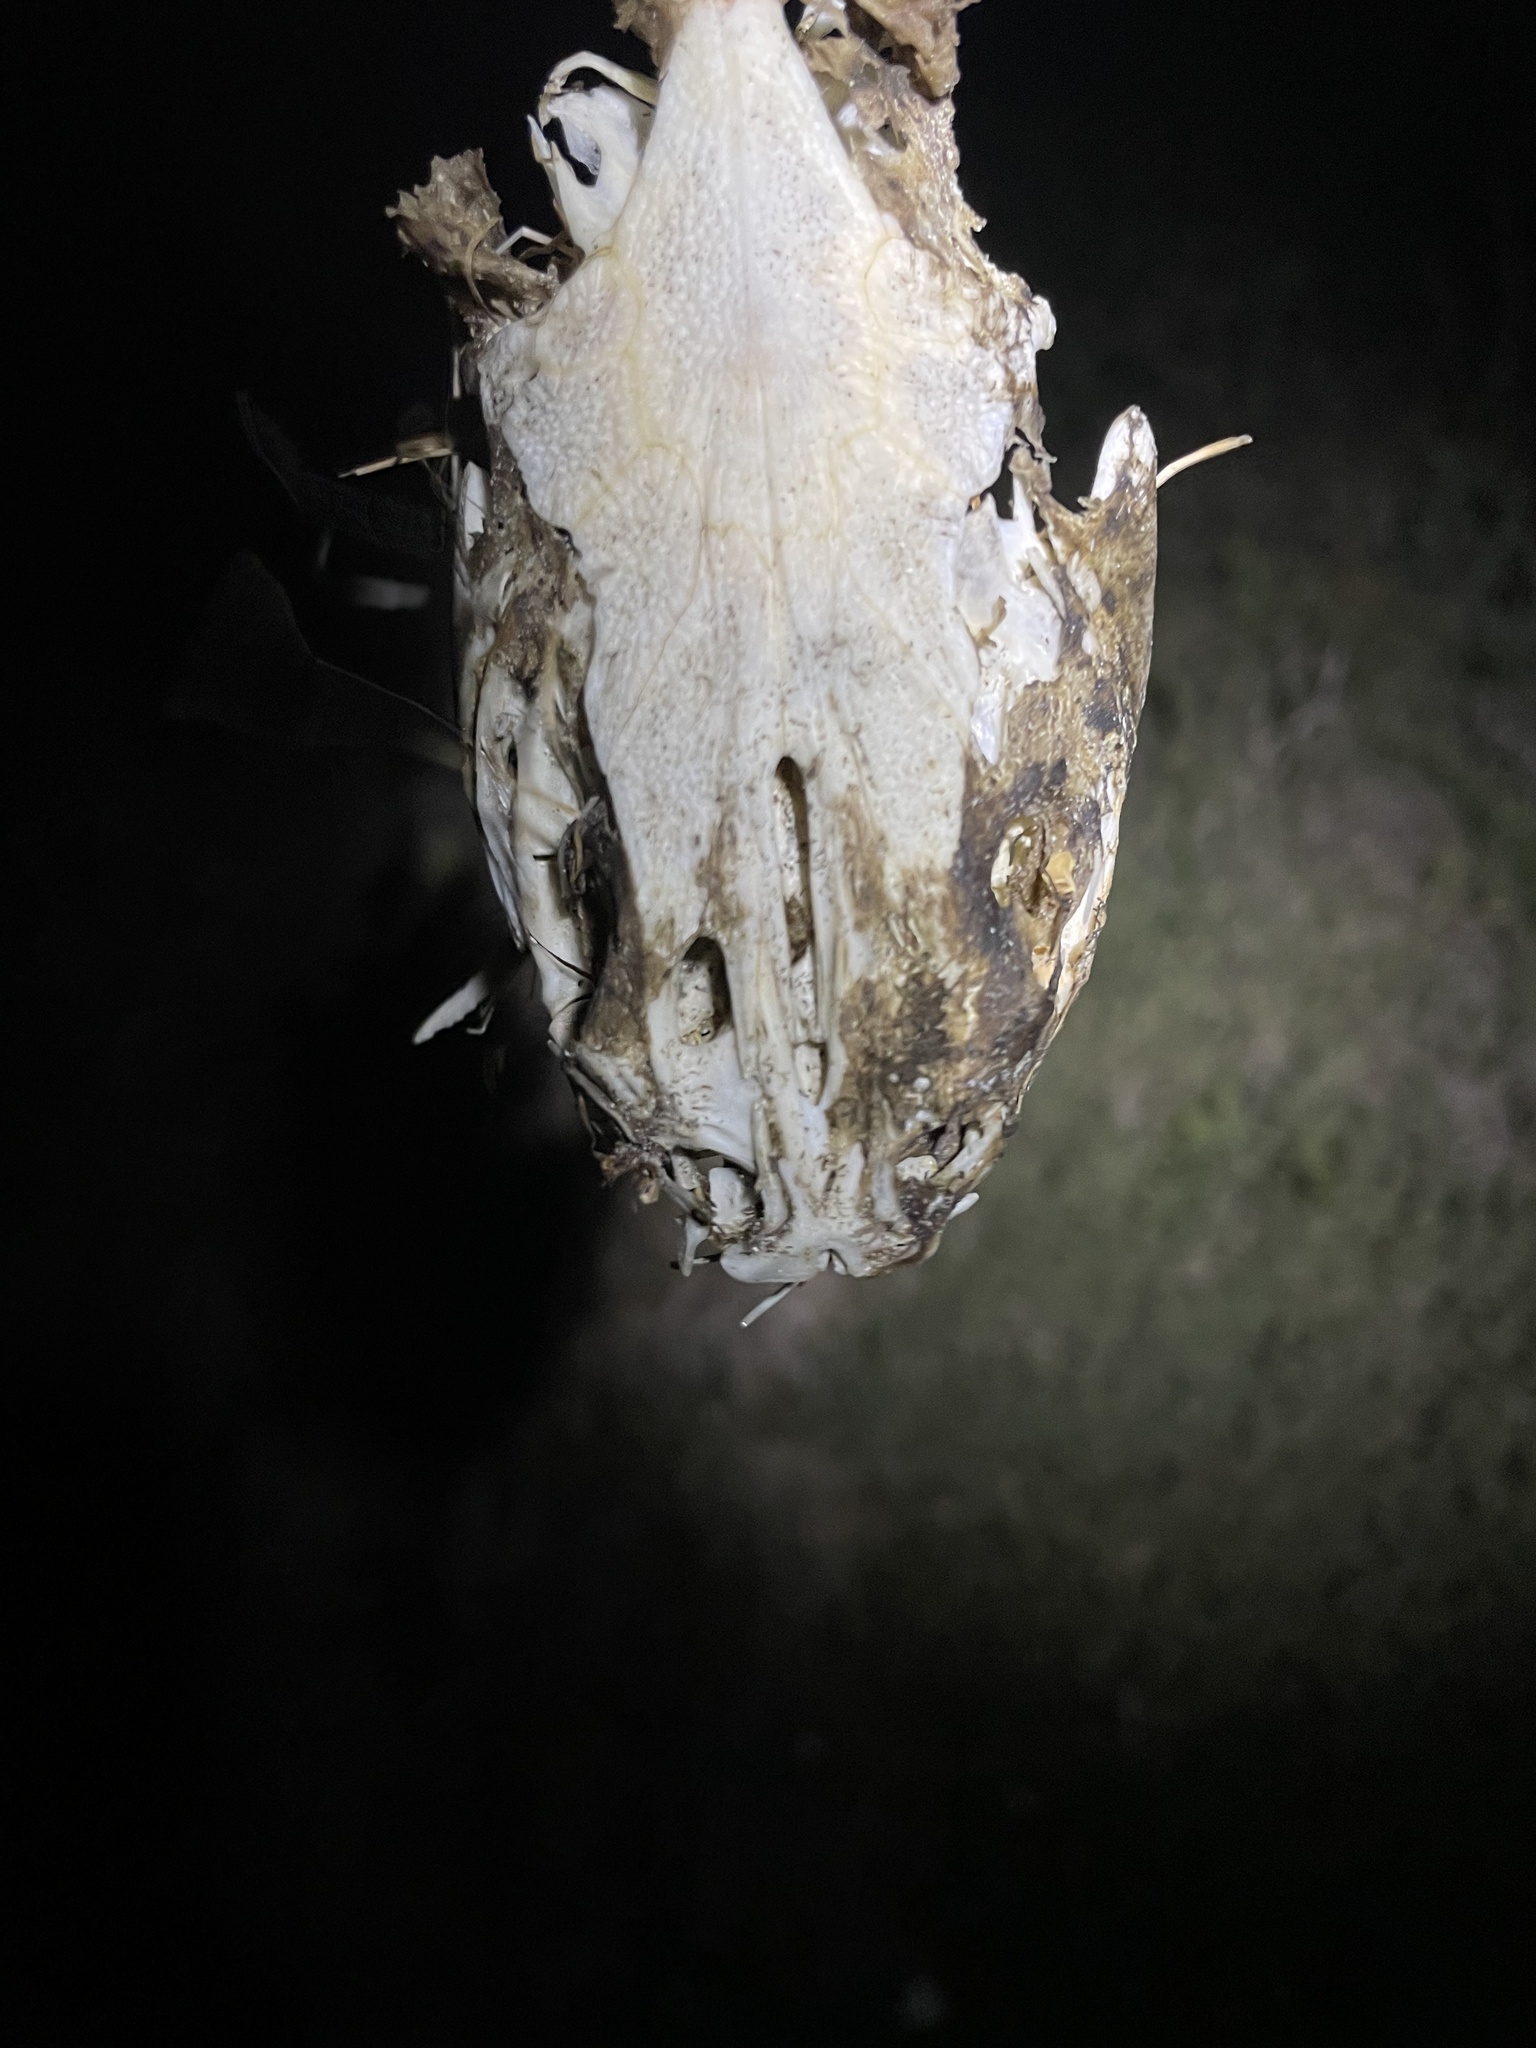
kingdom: Animalia
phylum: Chordata
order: Siluriformes
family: Ariidae
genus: Ariopsis
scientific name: Ariopsis felis
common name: Hardhead catfish
